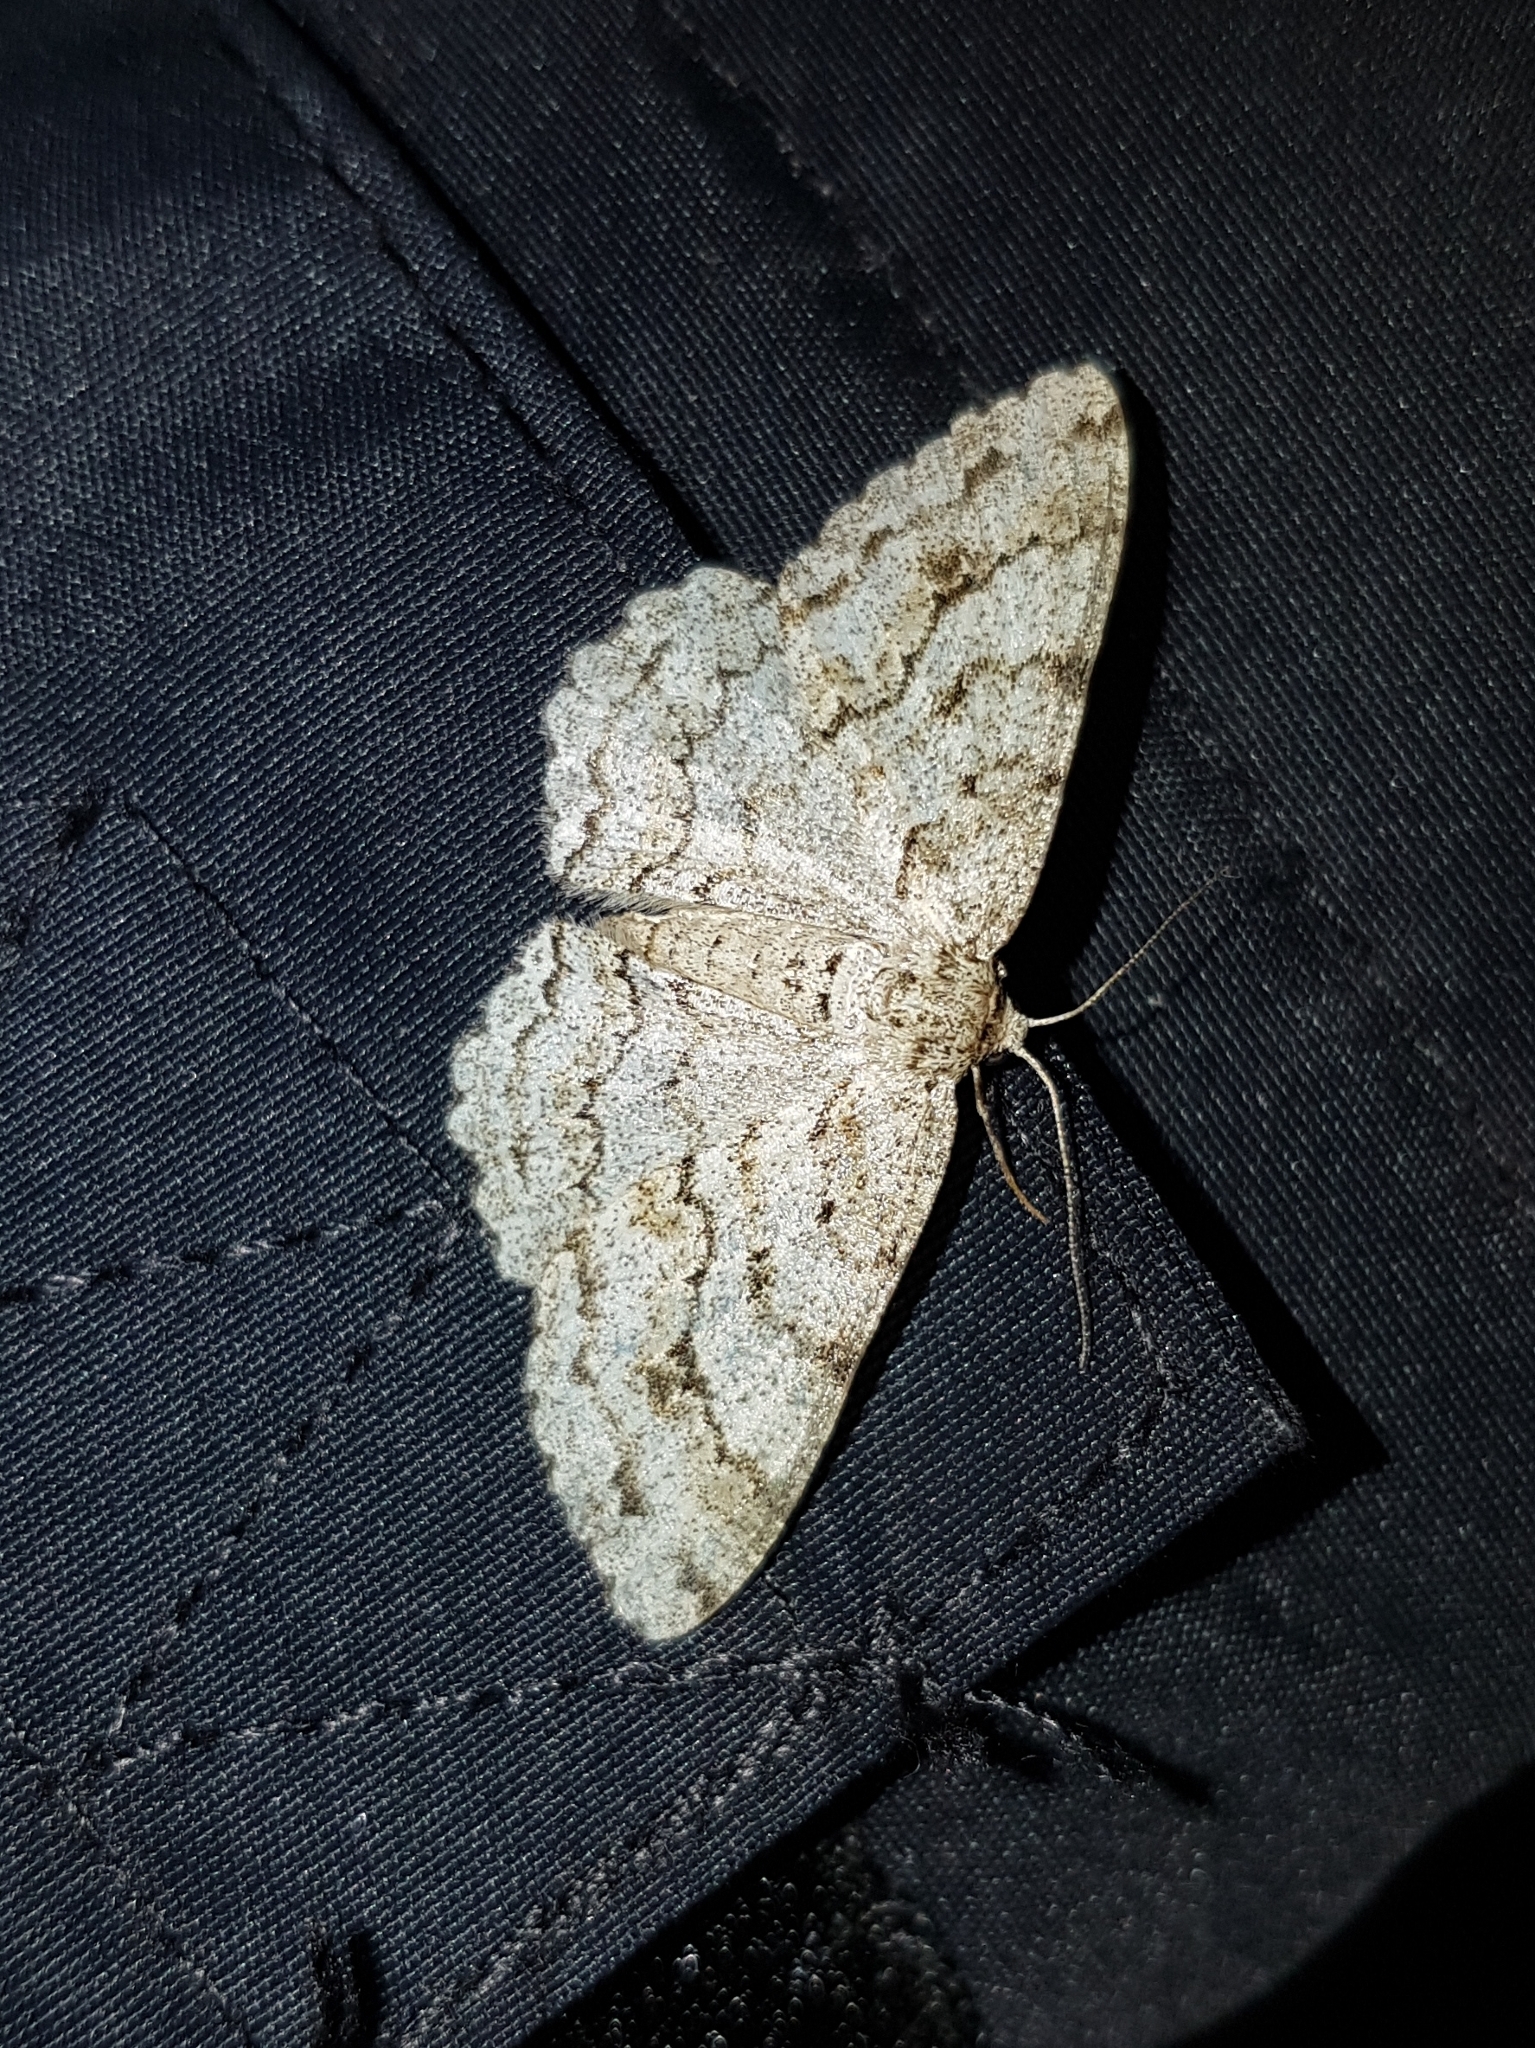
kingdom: Animalia
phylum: Arthropoda
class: Insecta
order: Lepidoptera
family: Geometridae
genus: Ectropis
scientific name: Ectropis crepuscularia
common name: Engrailed
